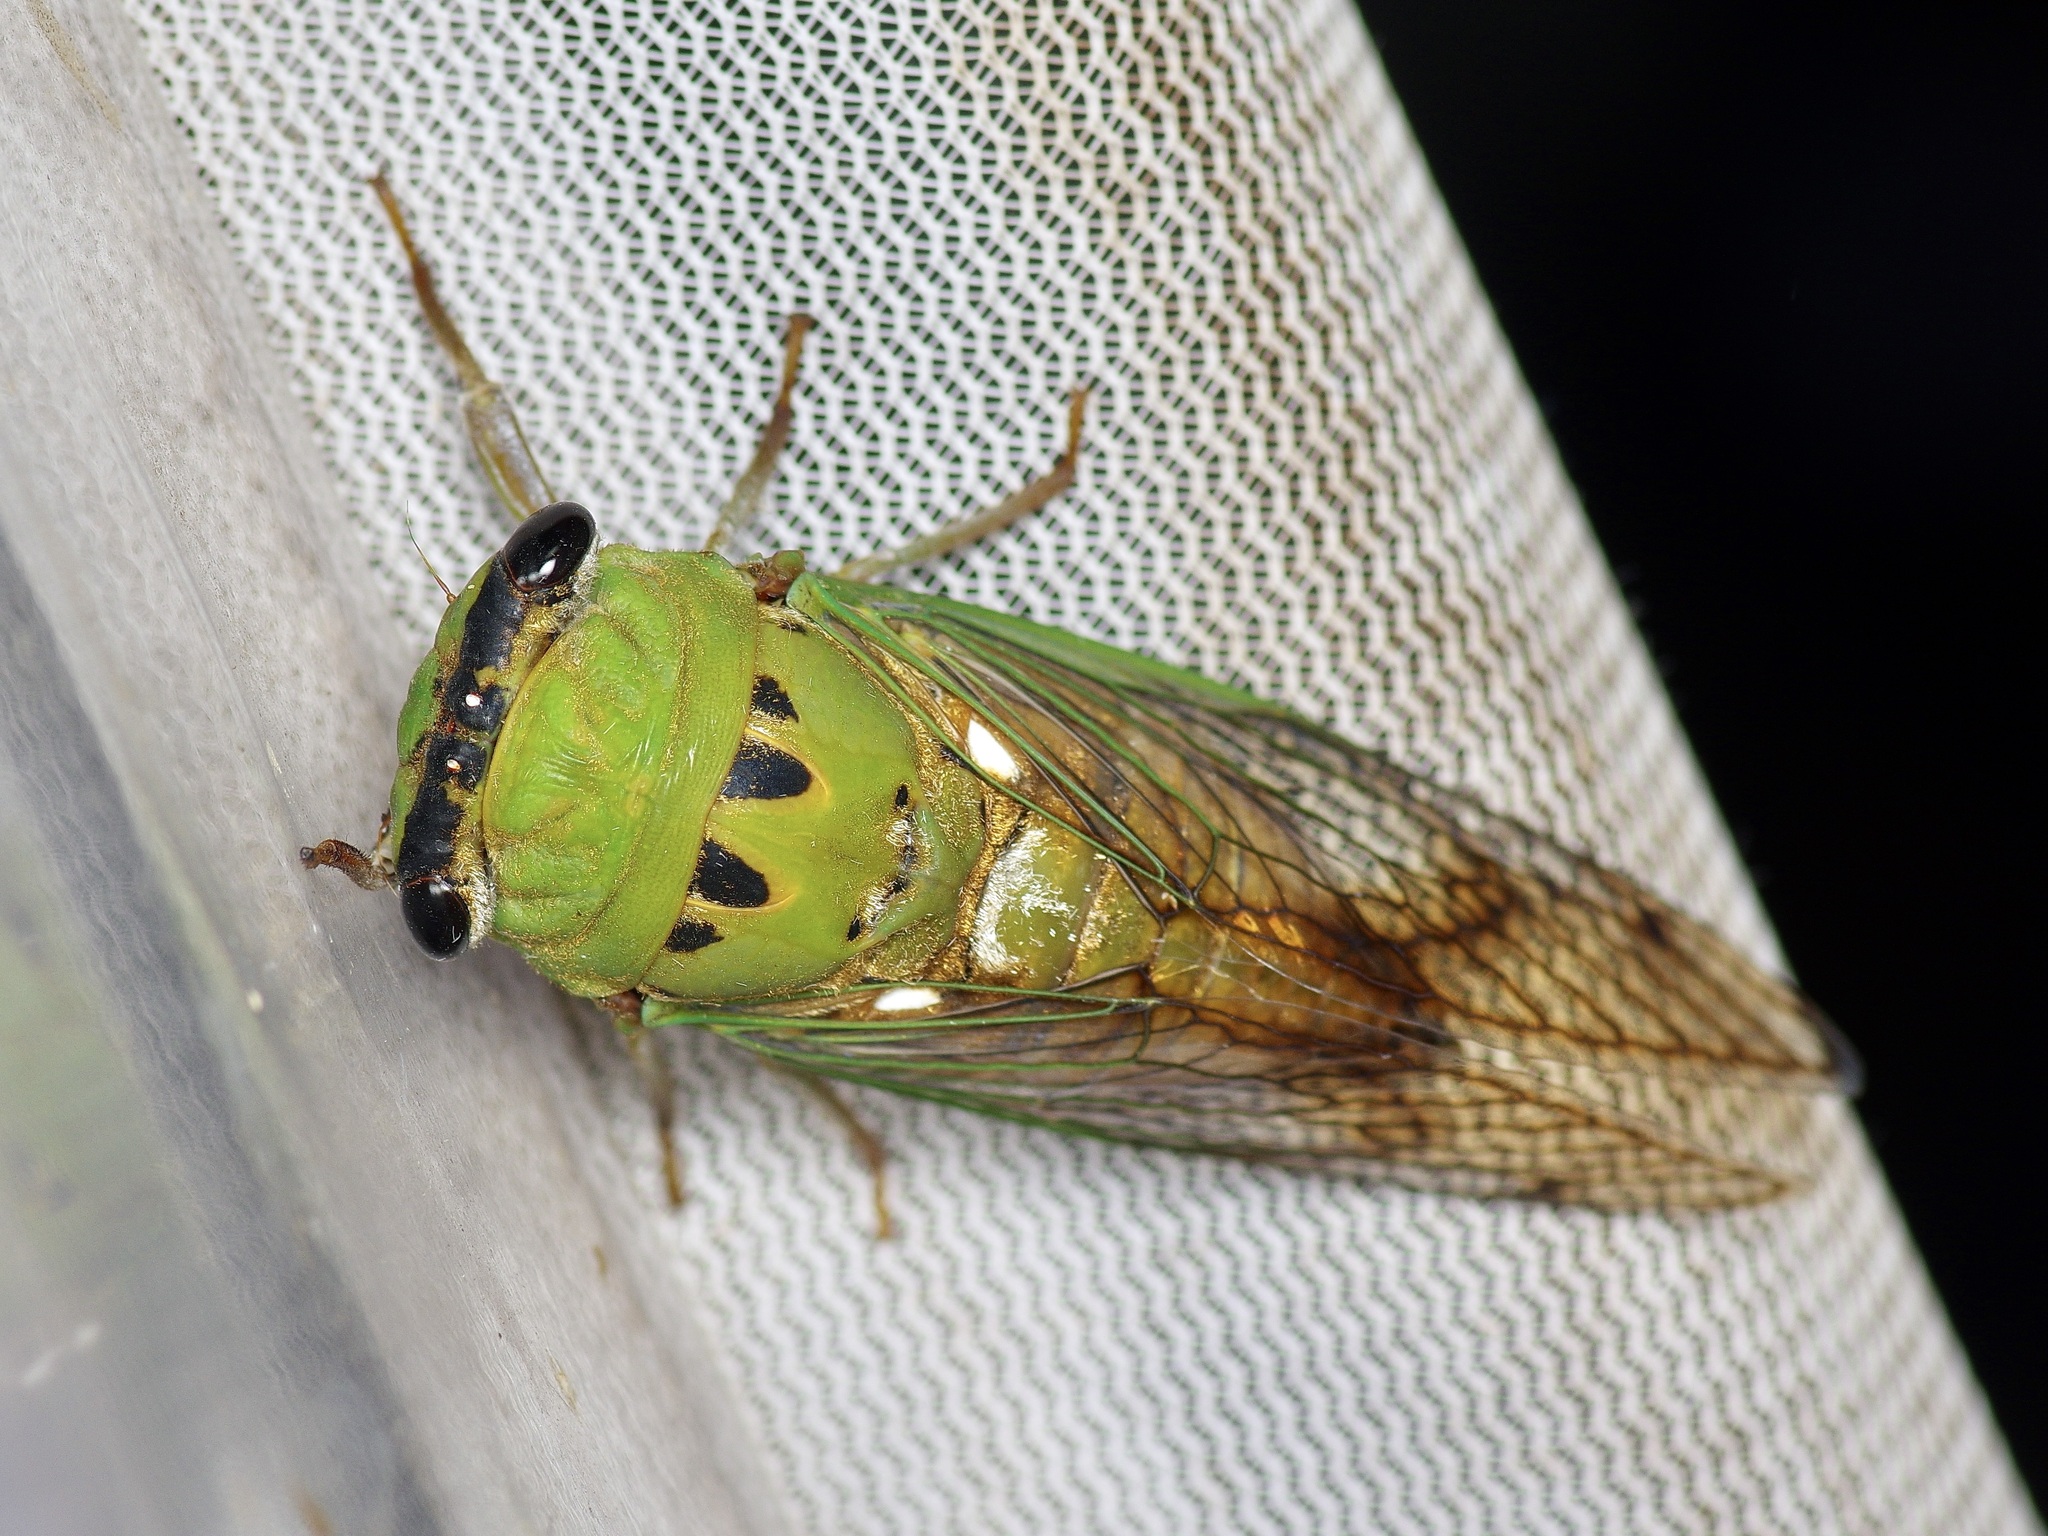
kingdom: Animalia
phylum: Arthropoda
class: Insecta
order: Hemiptera
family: Cicadidae
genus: Neotibicen
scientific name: Neotibicen superbus
